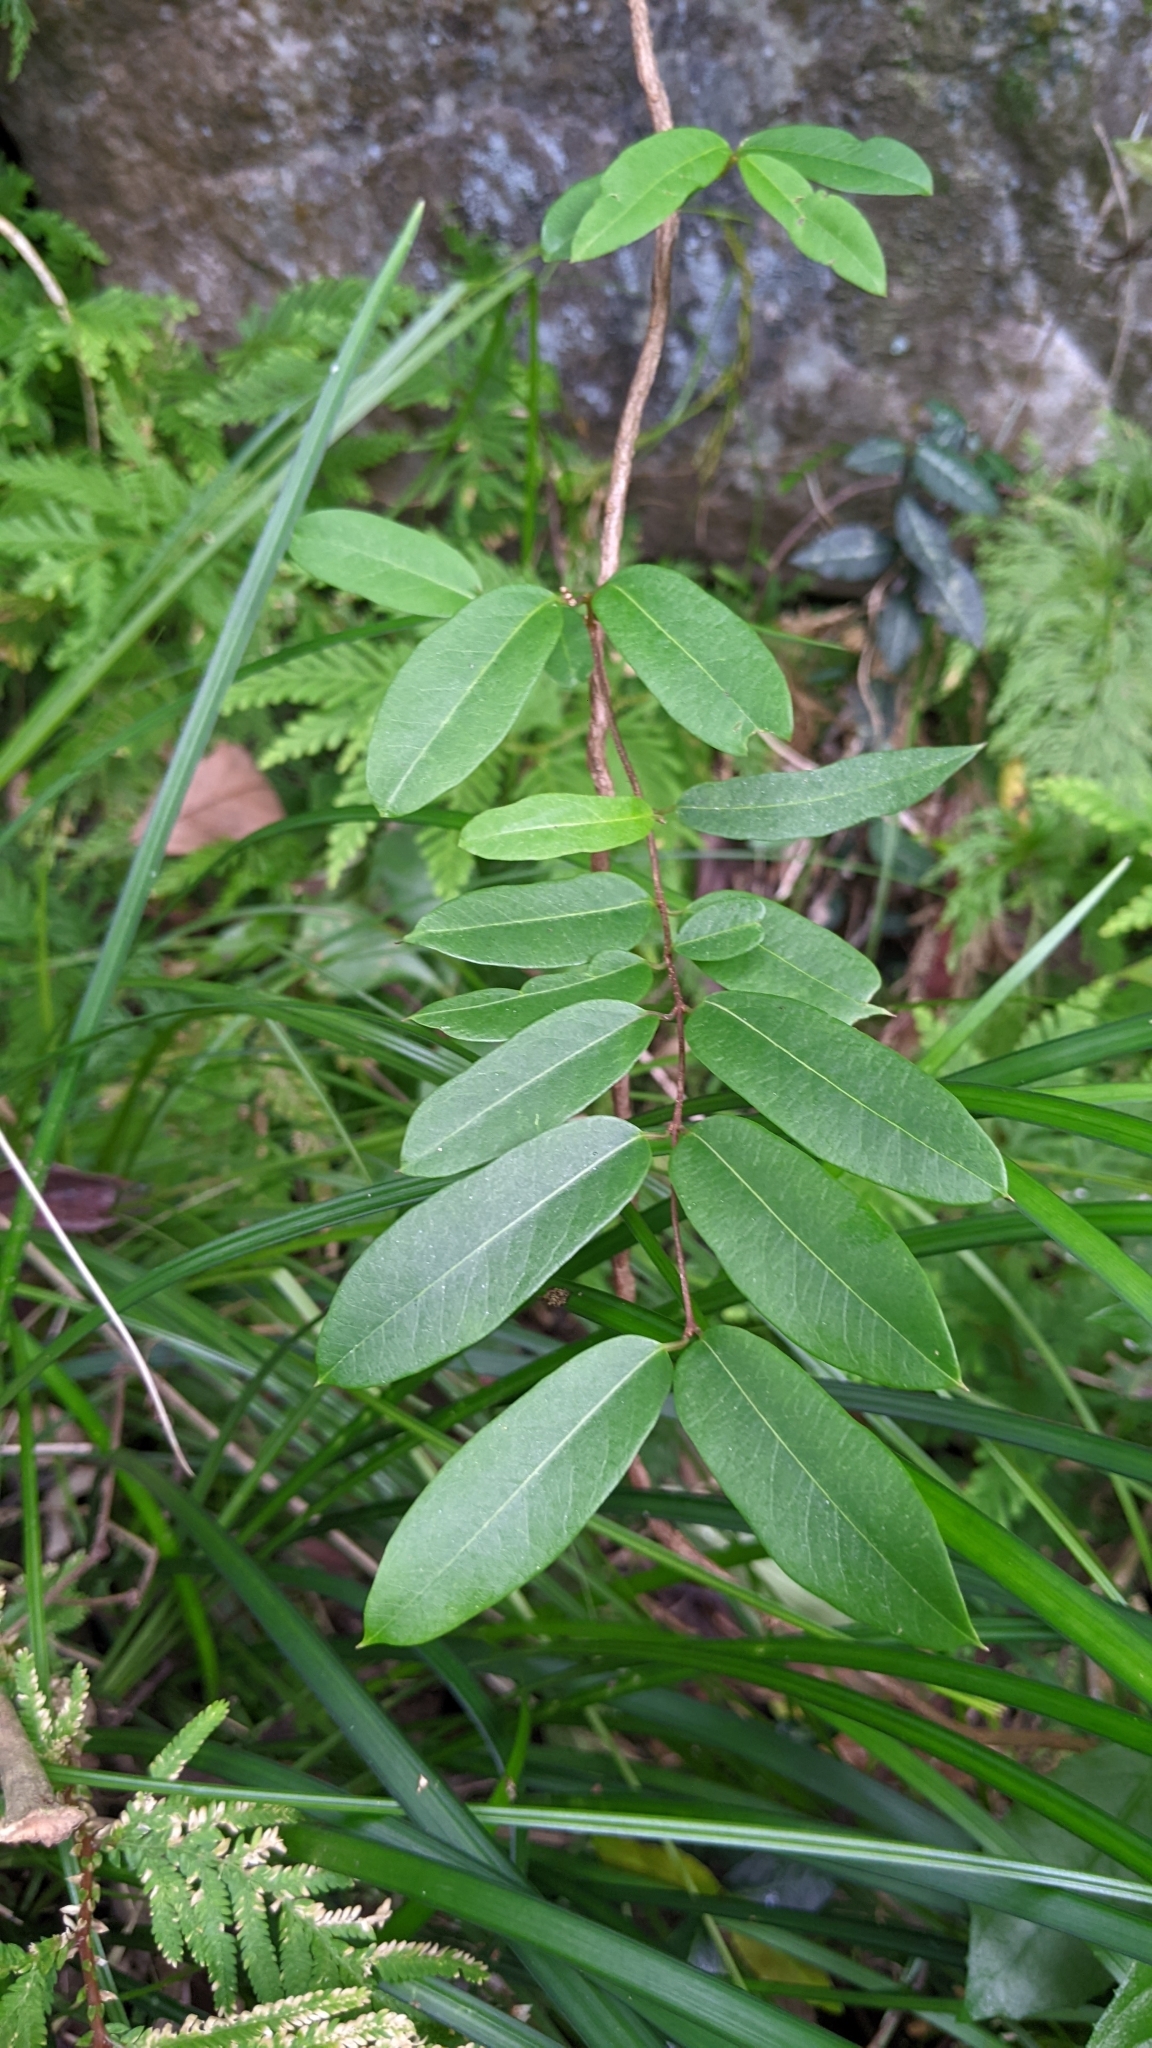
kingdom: Plantae
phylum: Tracheophyta
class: Magnoliopsida
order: Gentianales
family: Apocynaceae
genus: Cryptolepis
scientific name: Cryptolepis sinensis
